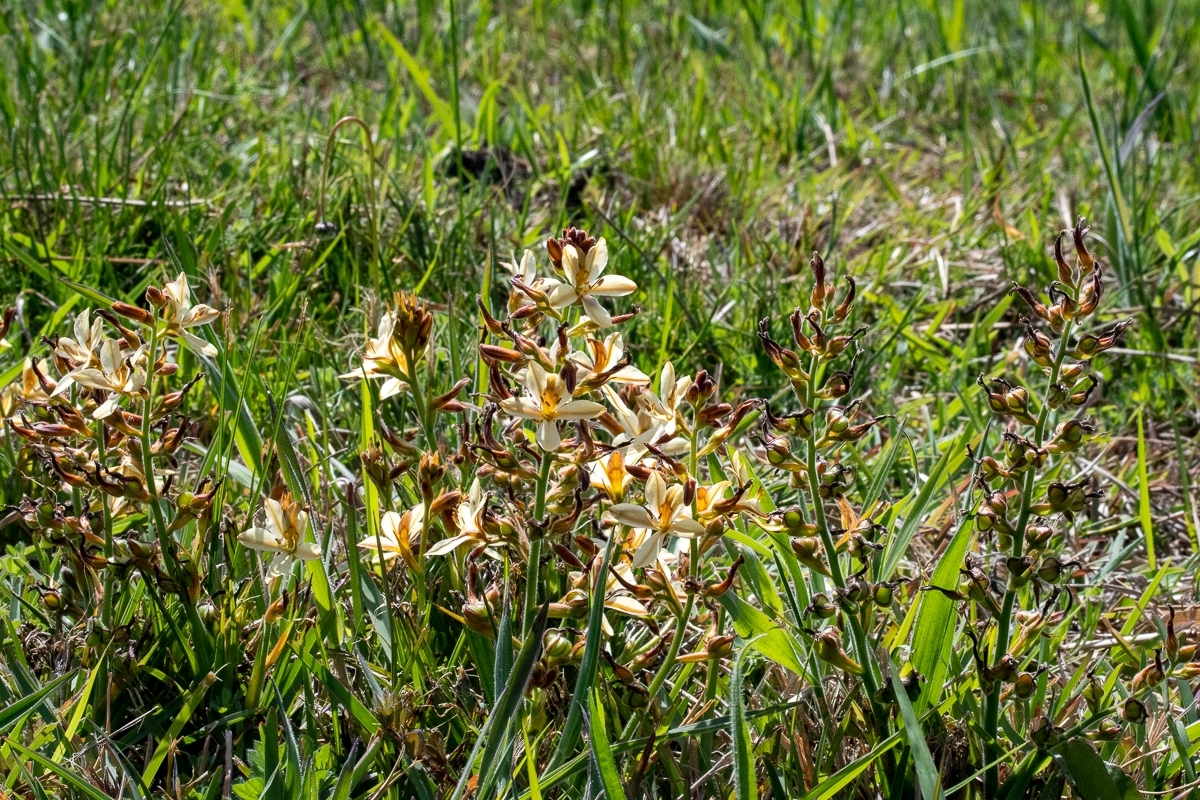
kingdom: Plantae
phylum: Tracheophyta
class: Liliopsida
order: Commelinales
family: Haemodoraceae
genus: Wachendorfia
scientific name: Wachendorfia paniculata
